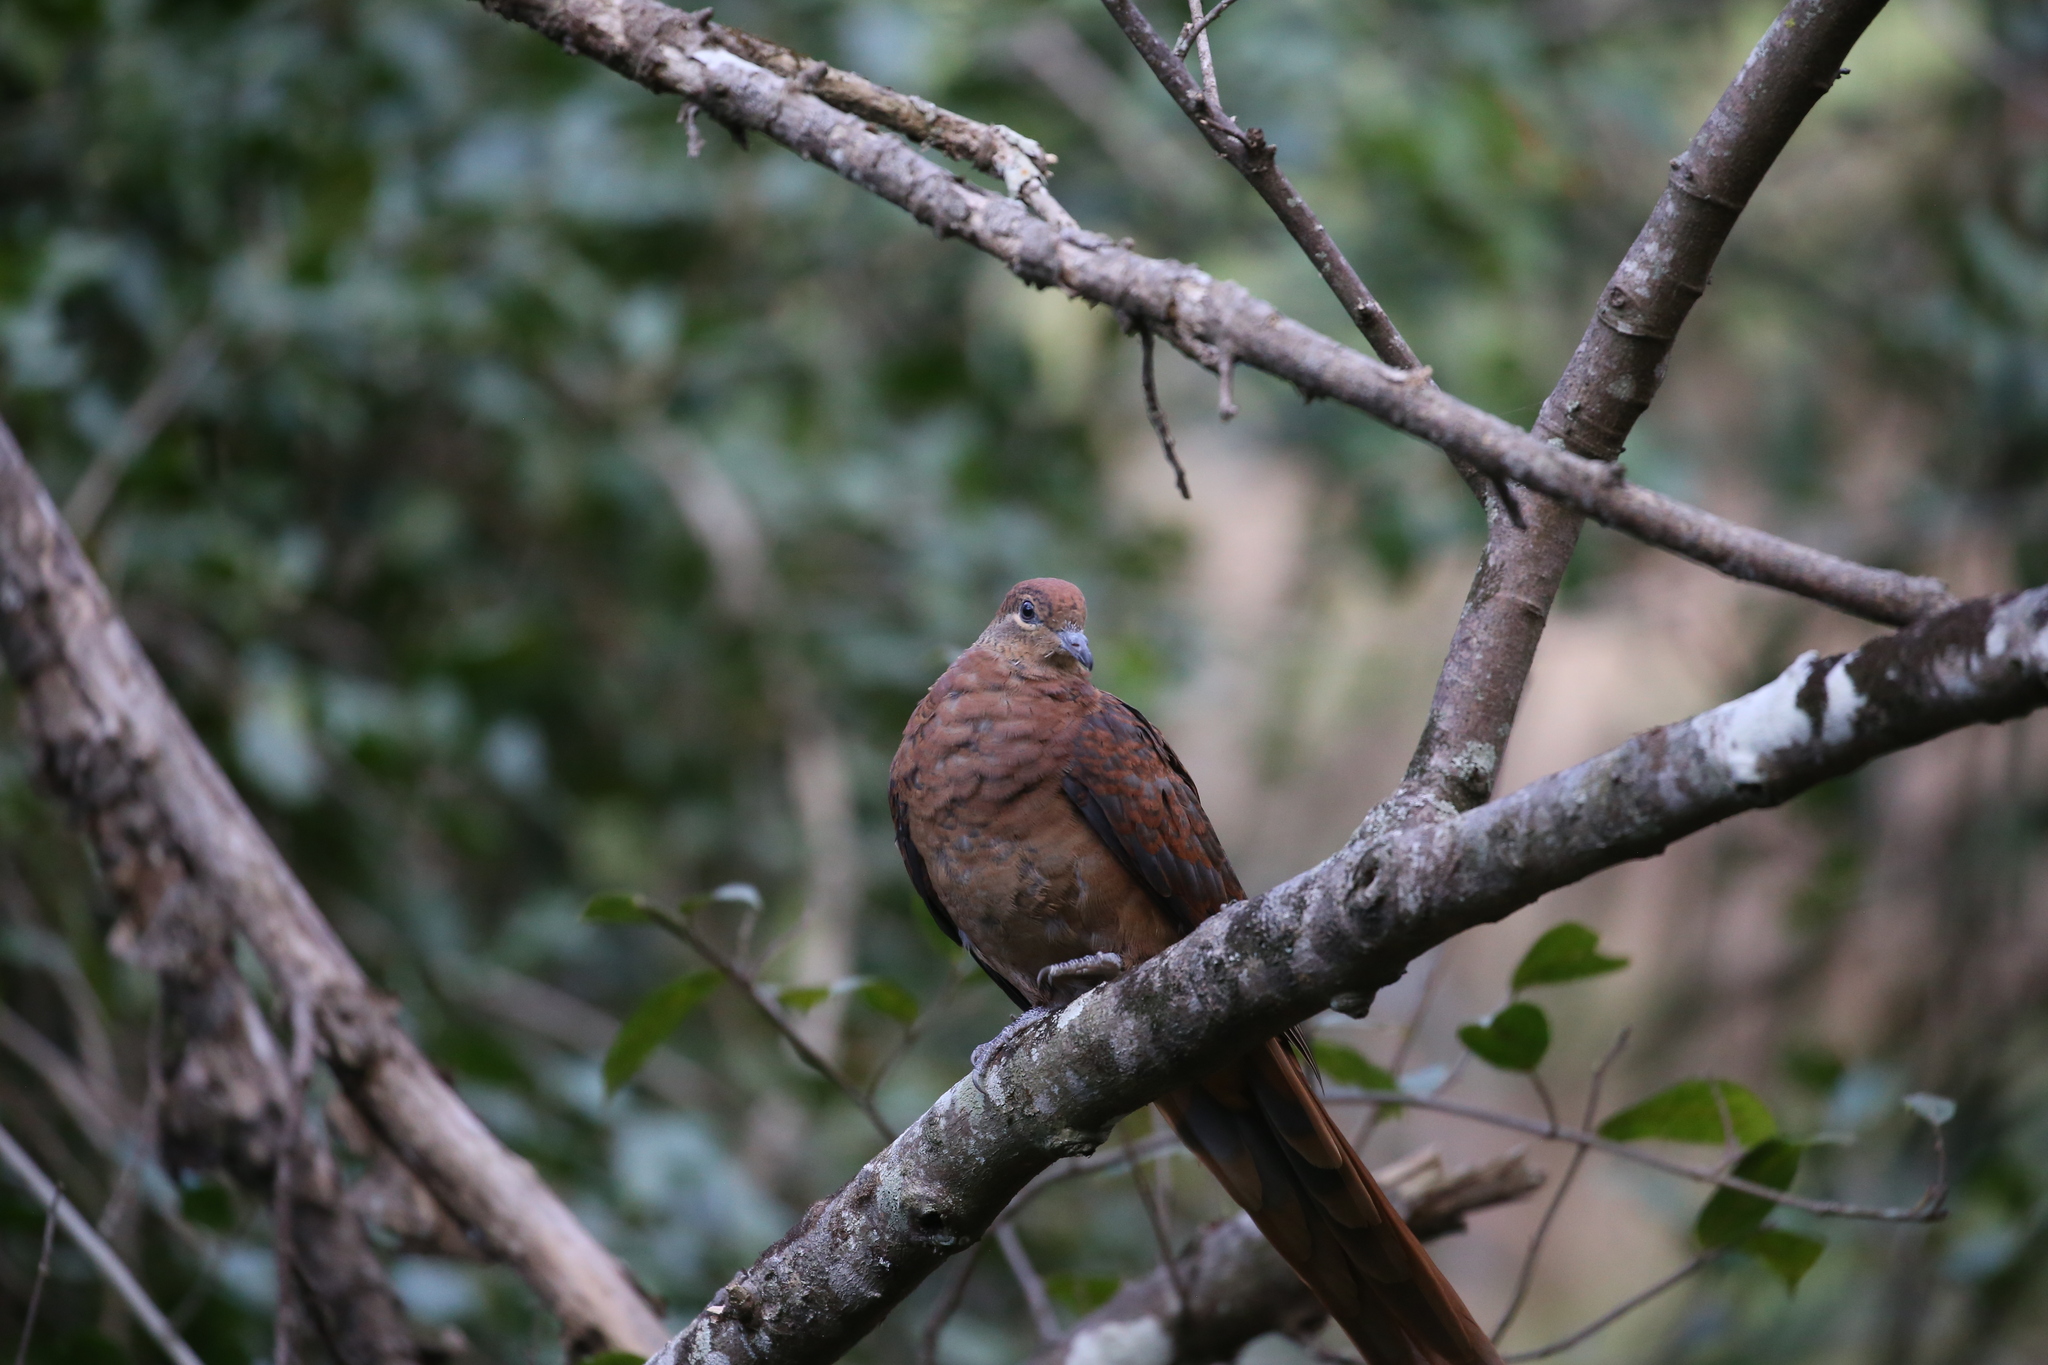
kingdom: Animalia
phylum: Chordata
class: Aves
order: Columbiformes
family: Columbidae
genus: Macropygia
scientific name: Macropygia phasianella
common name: Brown cuckoo-dove
